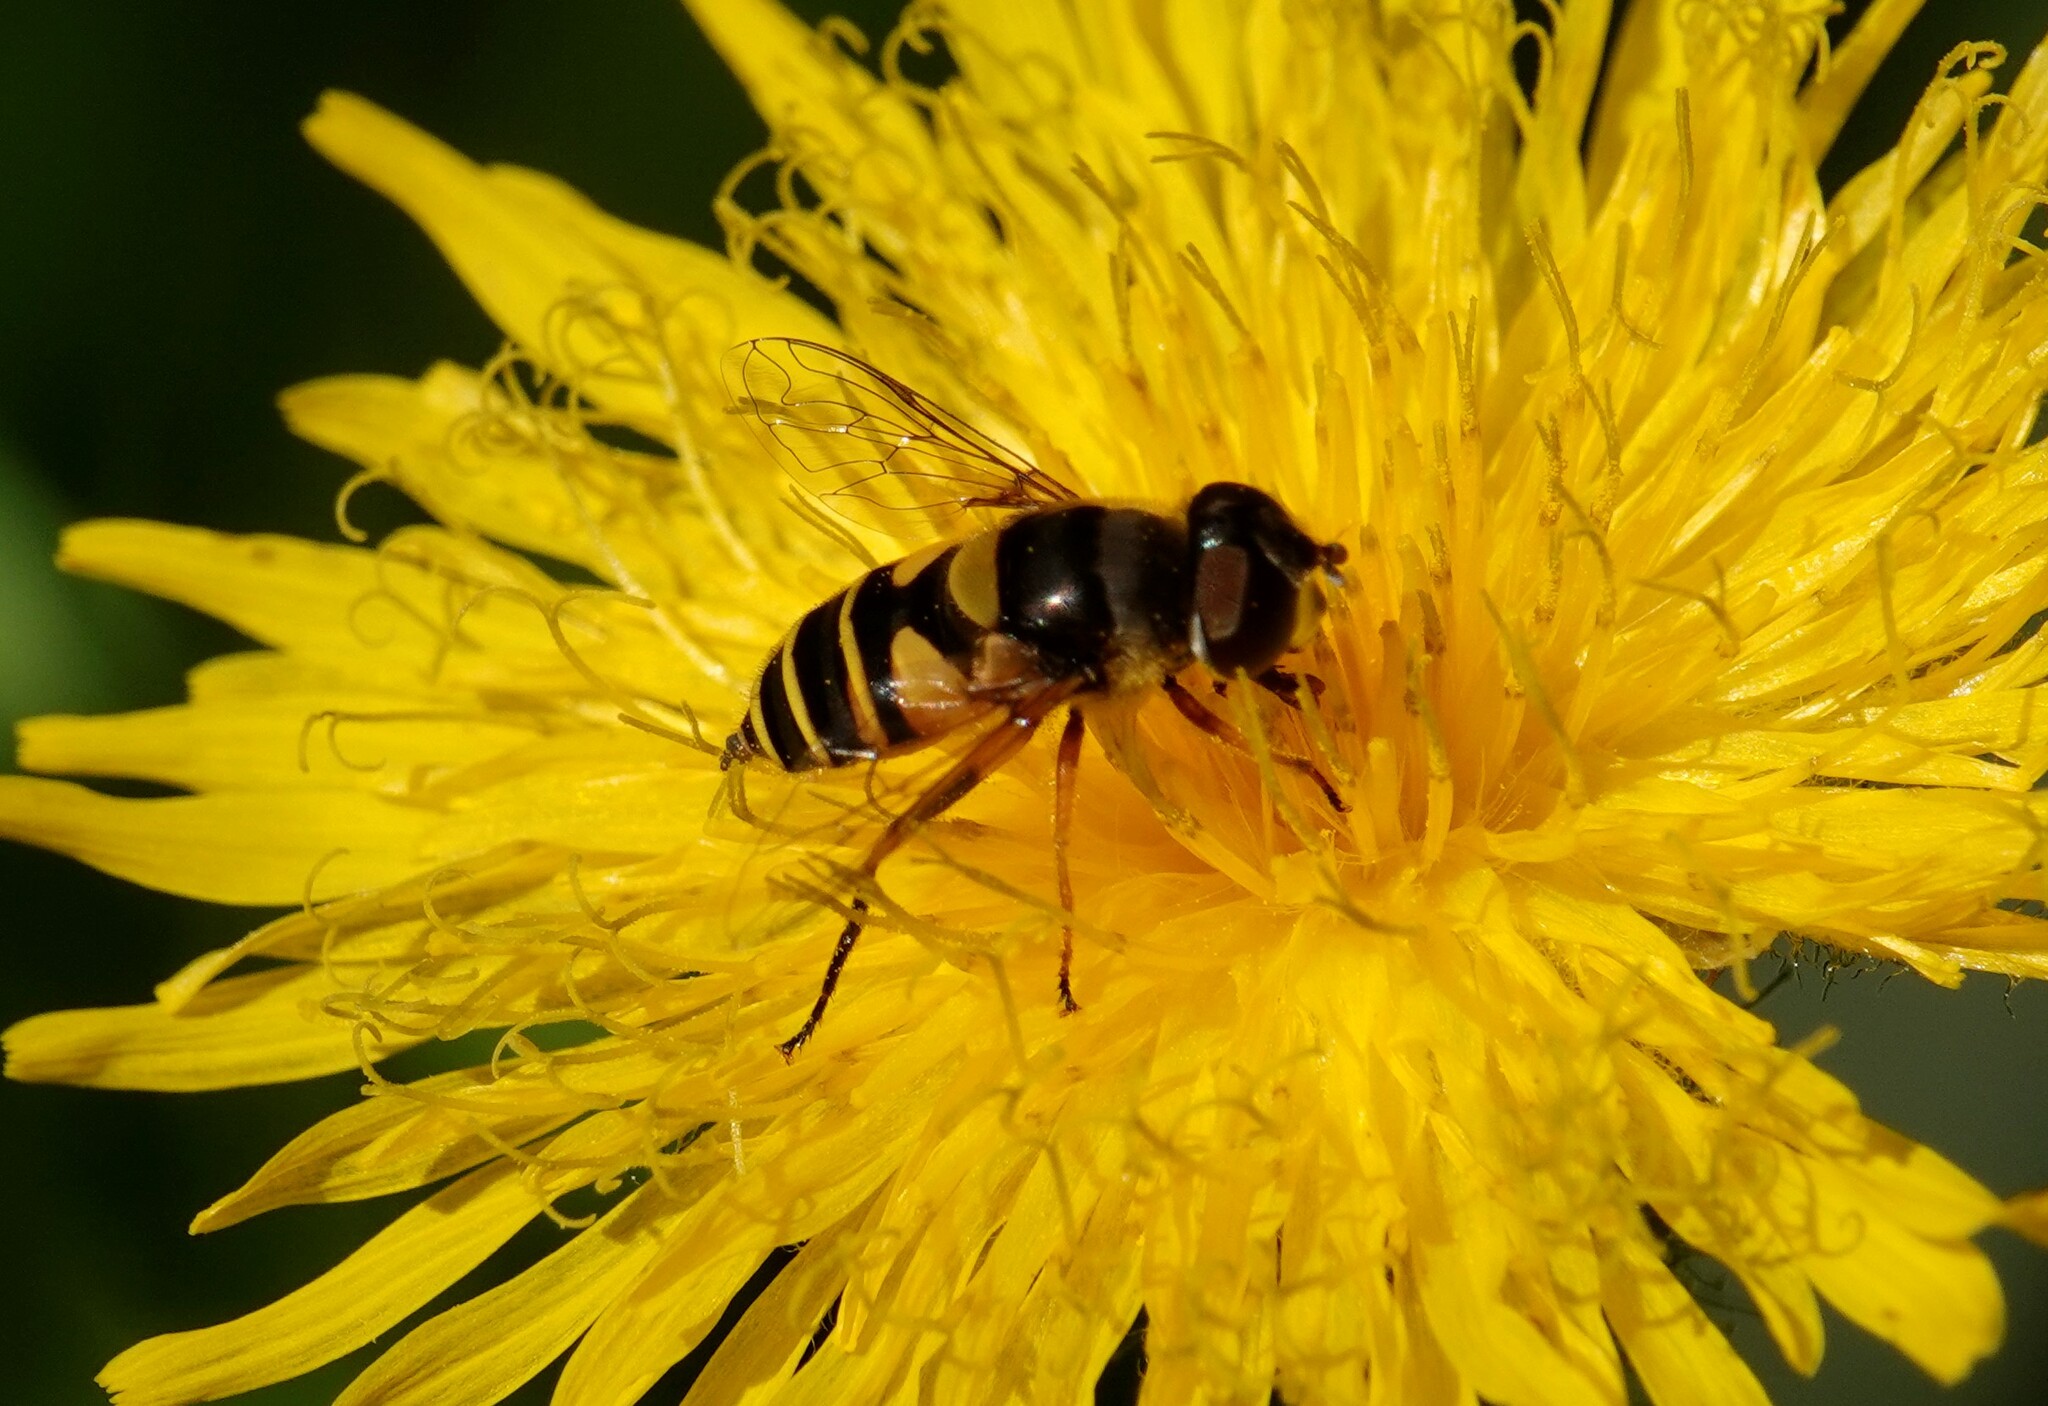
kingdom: Animalia
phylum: Arthropoda
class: Insecta
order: Diptera
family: Syrphidae
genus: Eristalis
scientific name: Eristalis transversa
